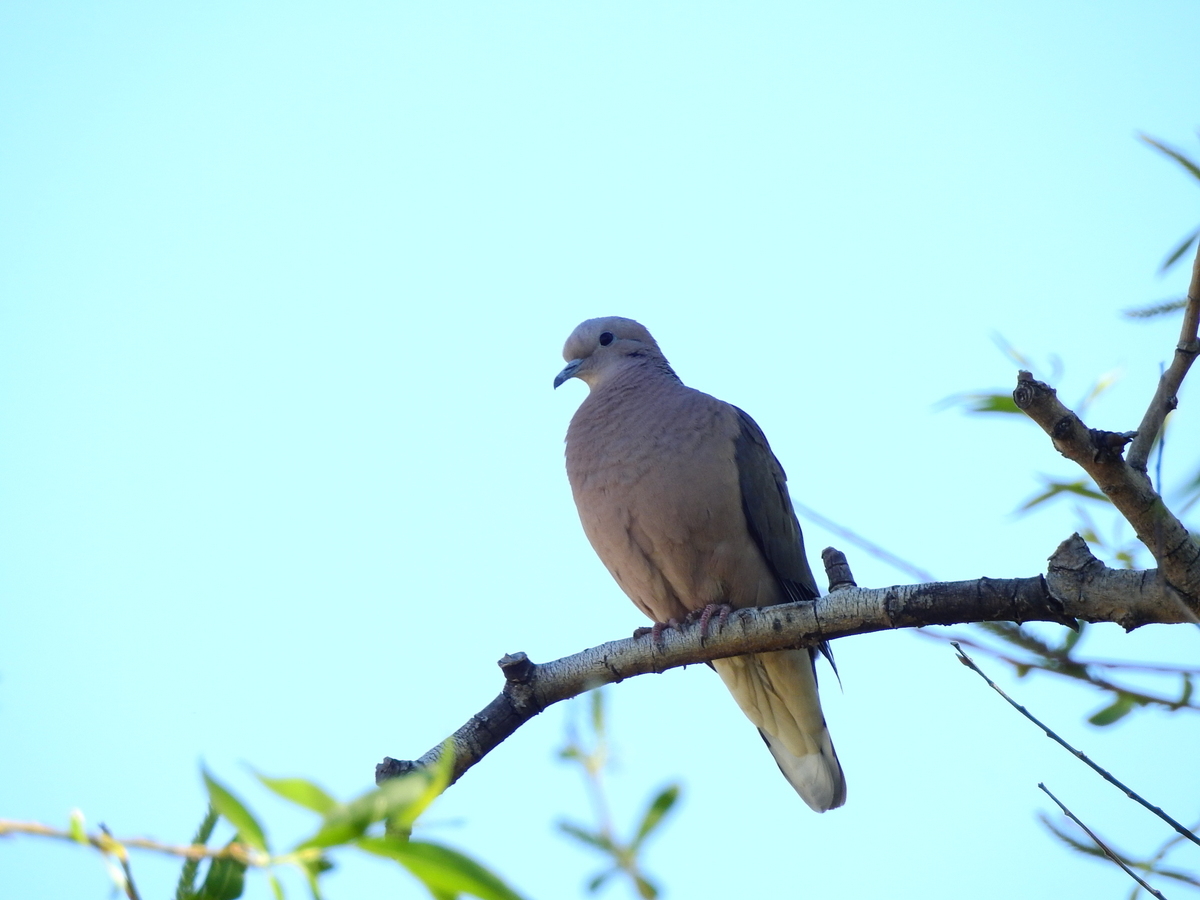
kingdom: Animalia
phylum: Chordata
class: Aves
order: Columbiformes
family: Columbidae
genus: Zenaida
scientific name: Zenaida auriculata
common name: Eared dove
